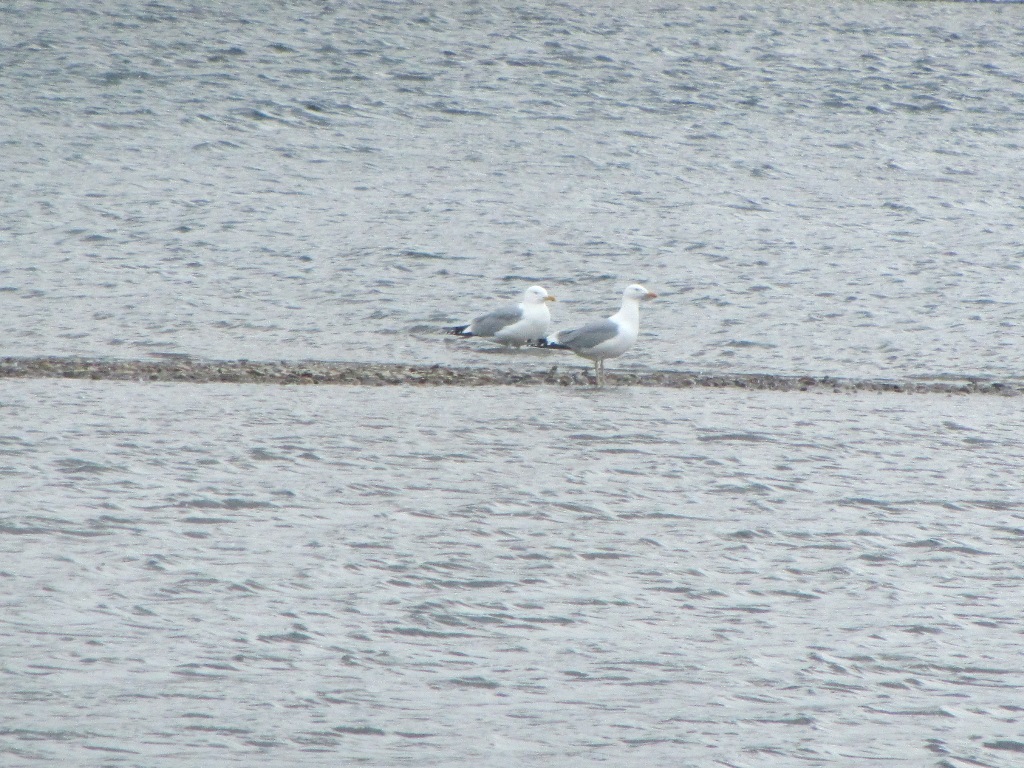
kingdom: Animalia
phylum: Chordata
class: Aves
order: Charadriiformes
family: Laridae
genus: Larus
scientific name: Larus vegae
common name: Vega gull
